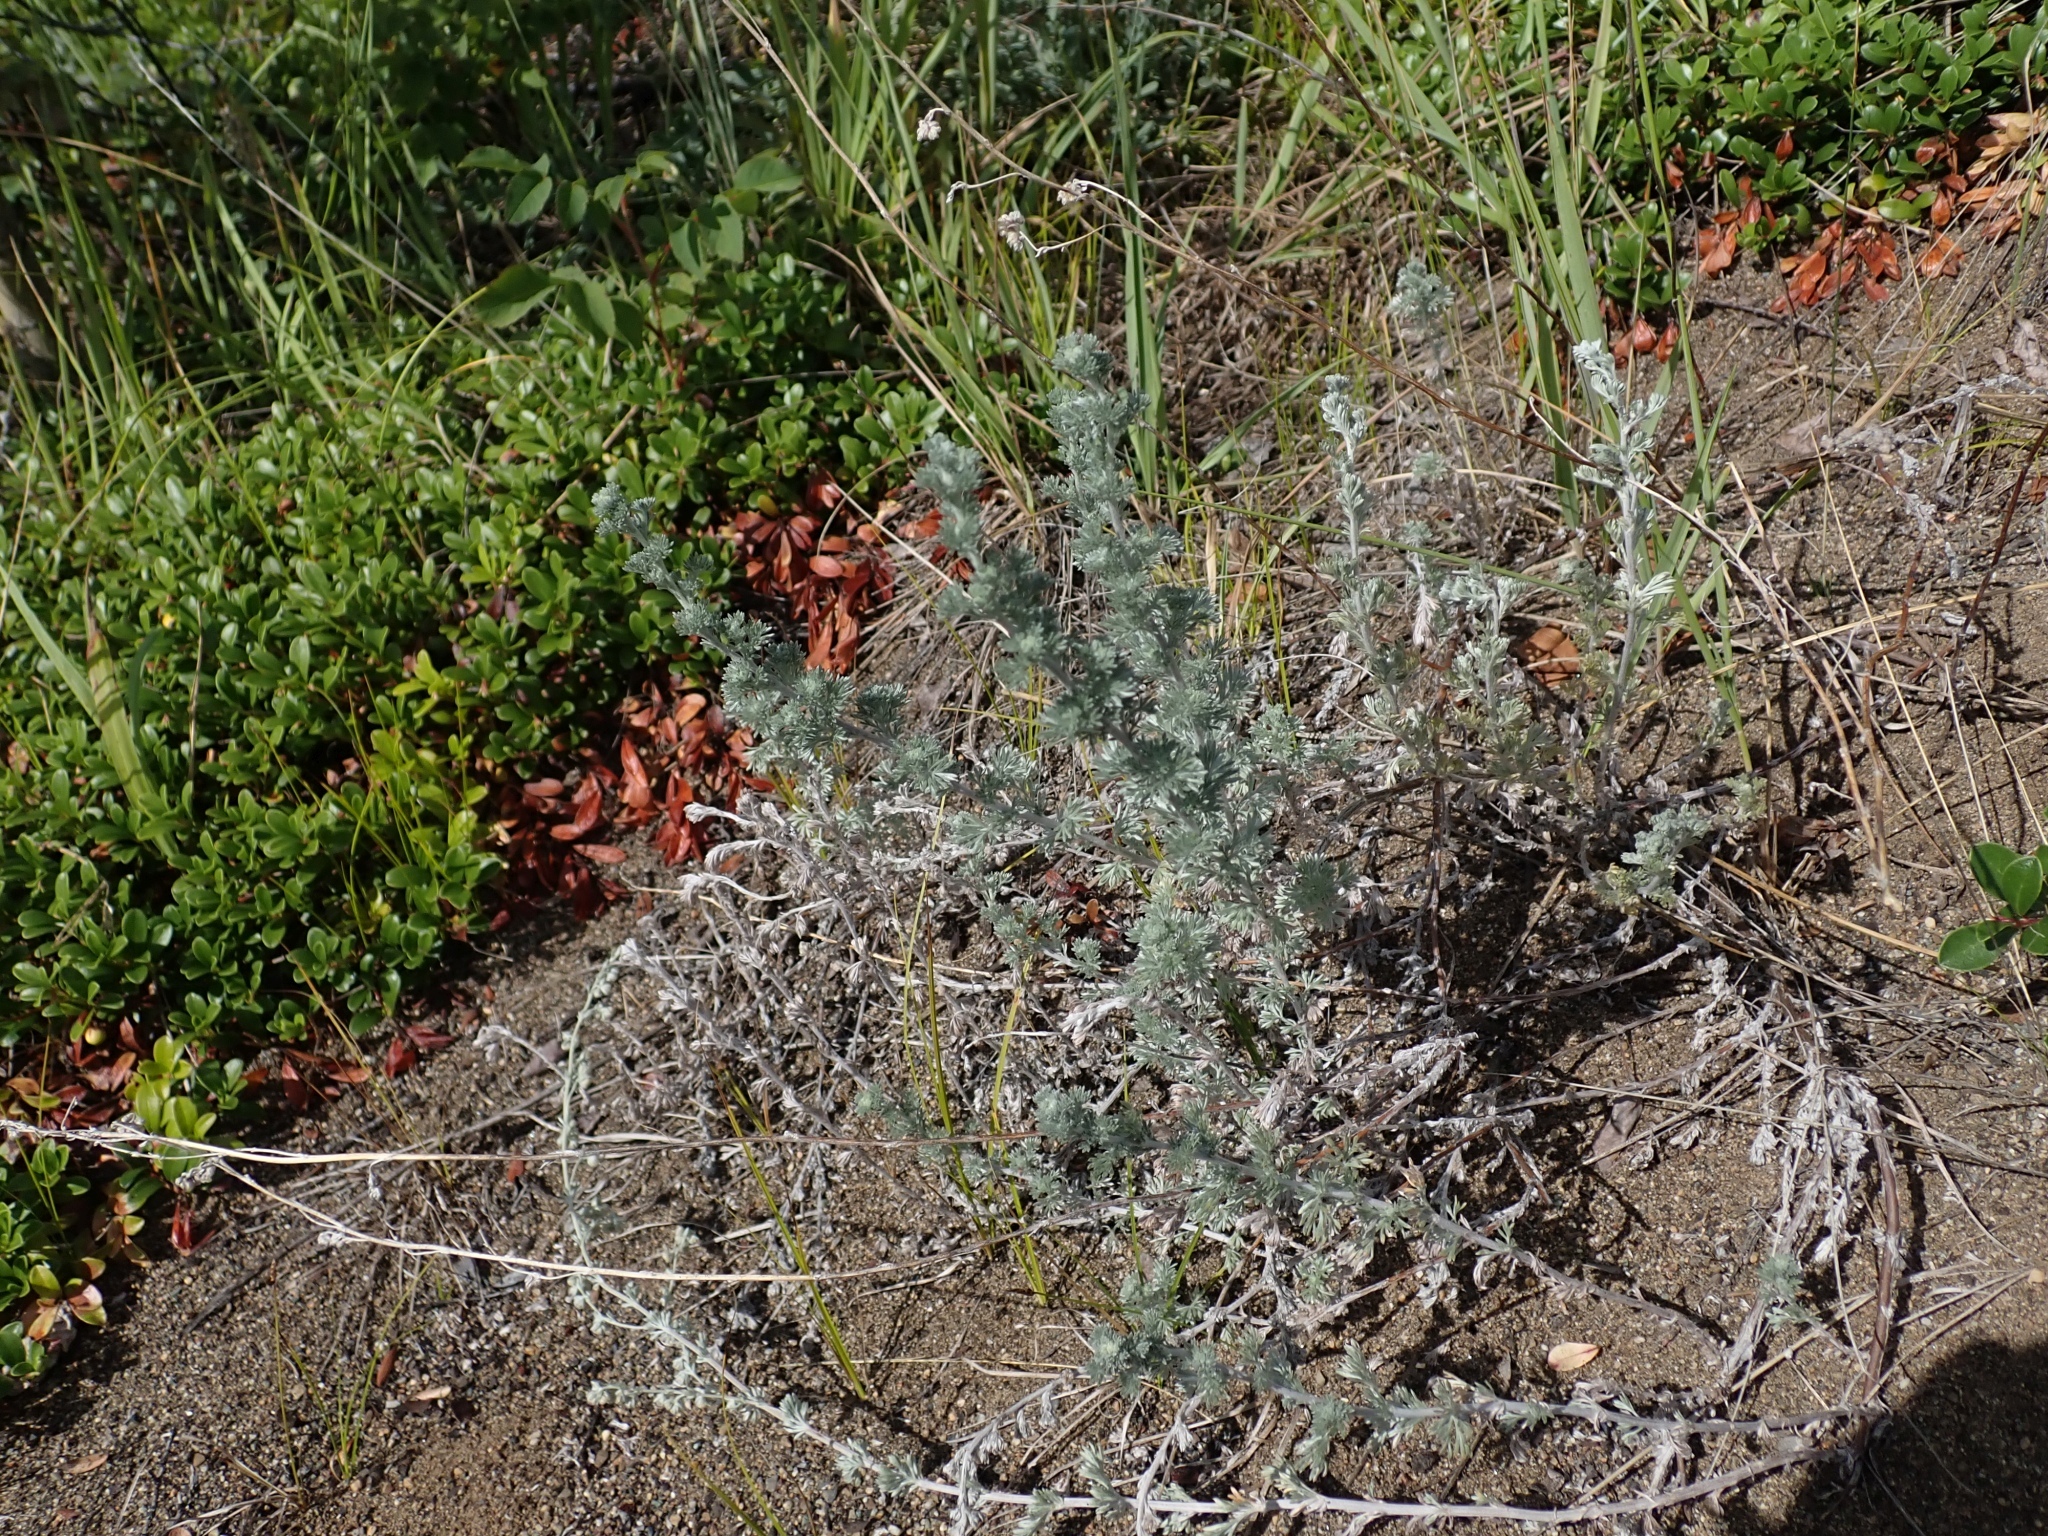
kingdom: Plantae
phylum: Tracheophyta
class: Magnoliopsida
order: Asterales
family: Asteraceae
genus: Artemisia
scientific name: Artemisia frigida
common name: Prairie sagewort
